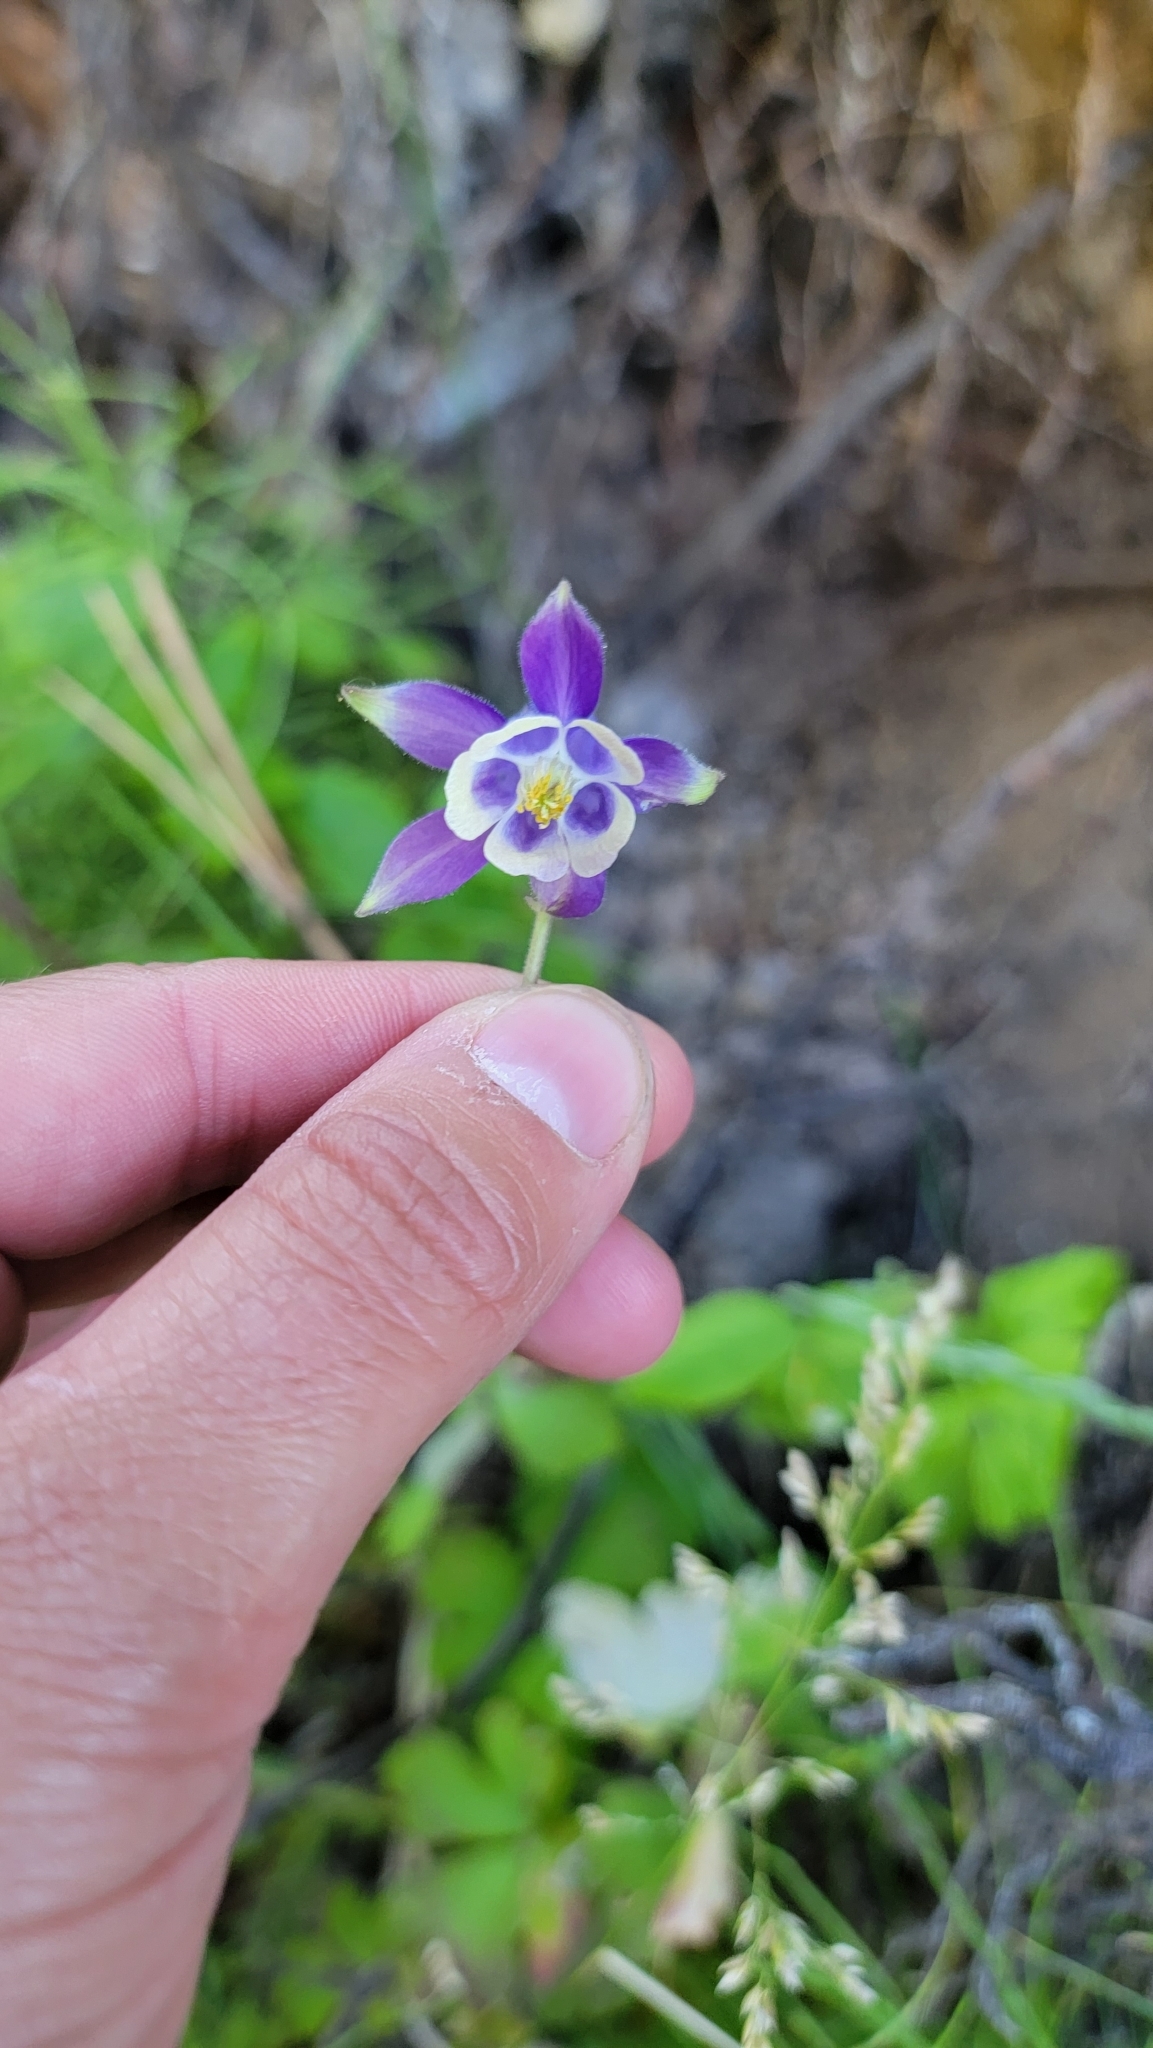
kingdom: Plantae
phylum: Tracheophyta
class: Magnoliopsida
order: Ranunculales
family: Ranunculaceae
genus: Aquilegia
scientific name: Aquilegia brevistyla
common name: Yukon columbine
